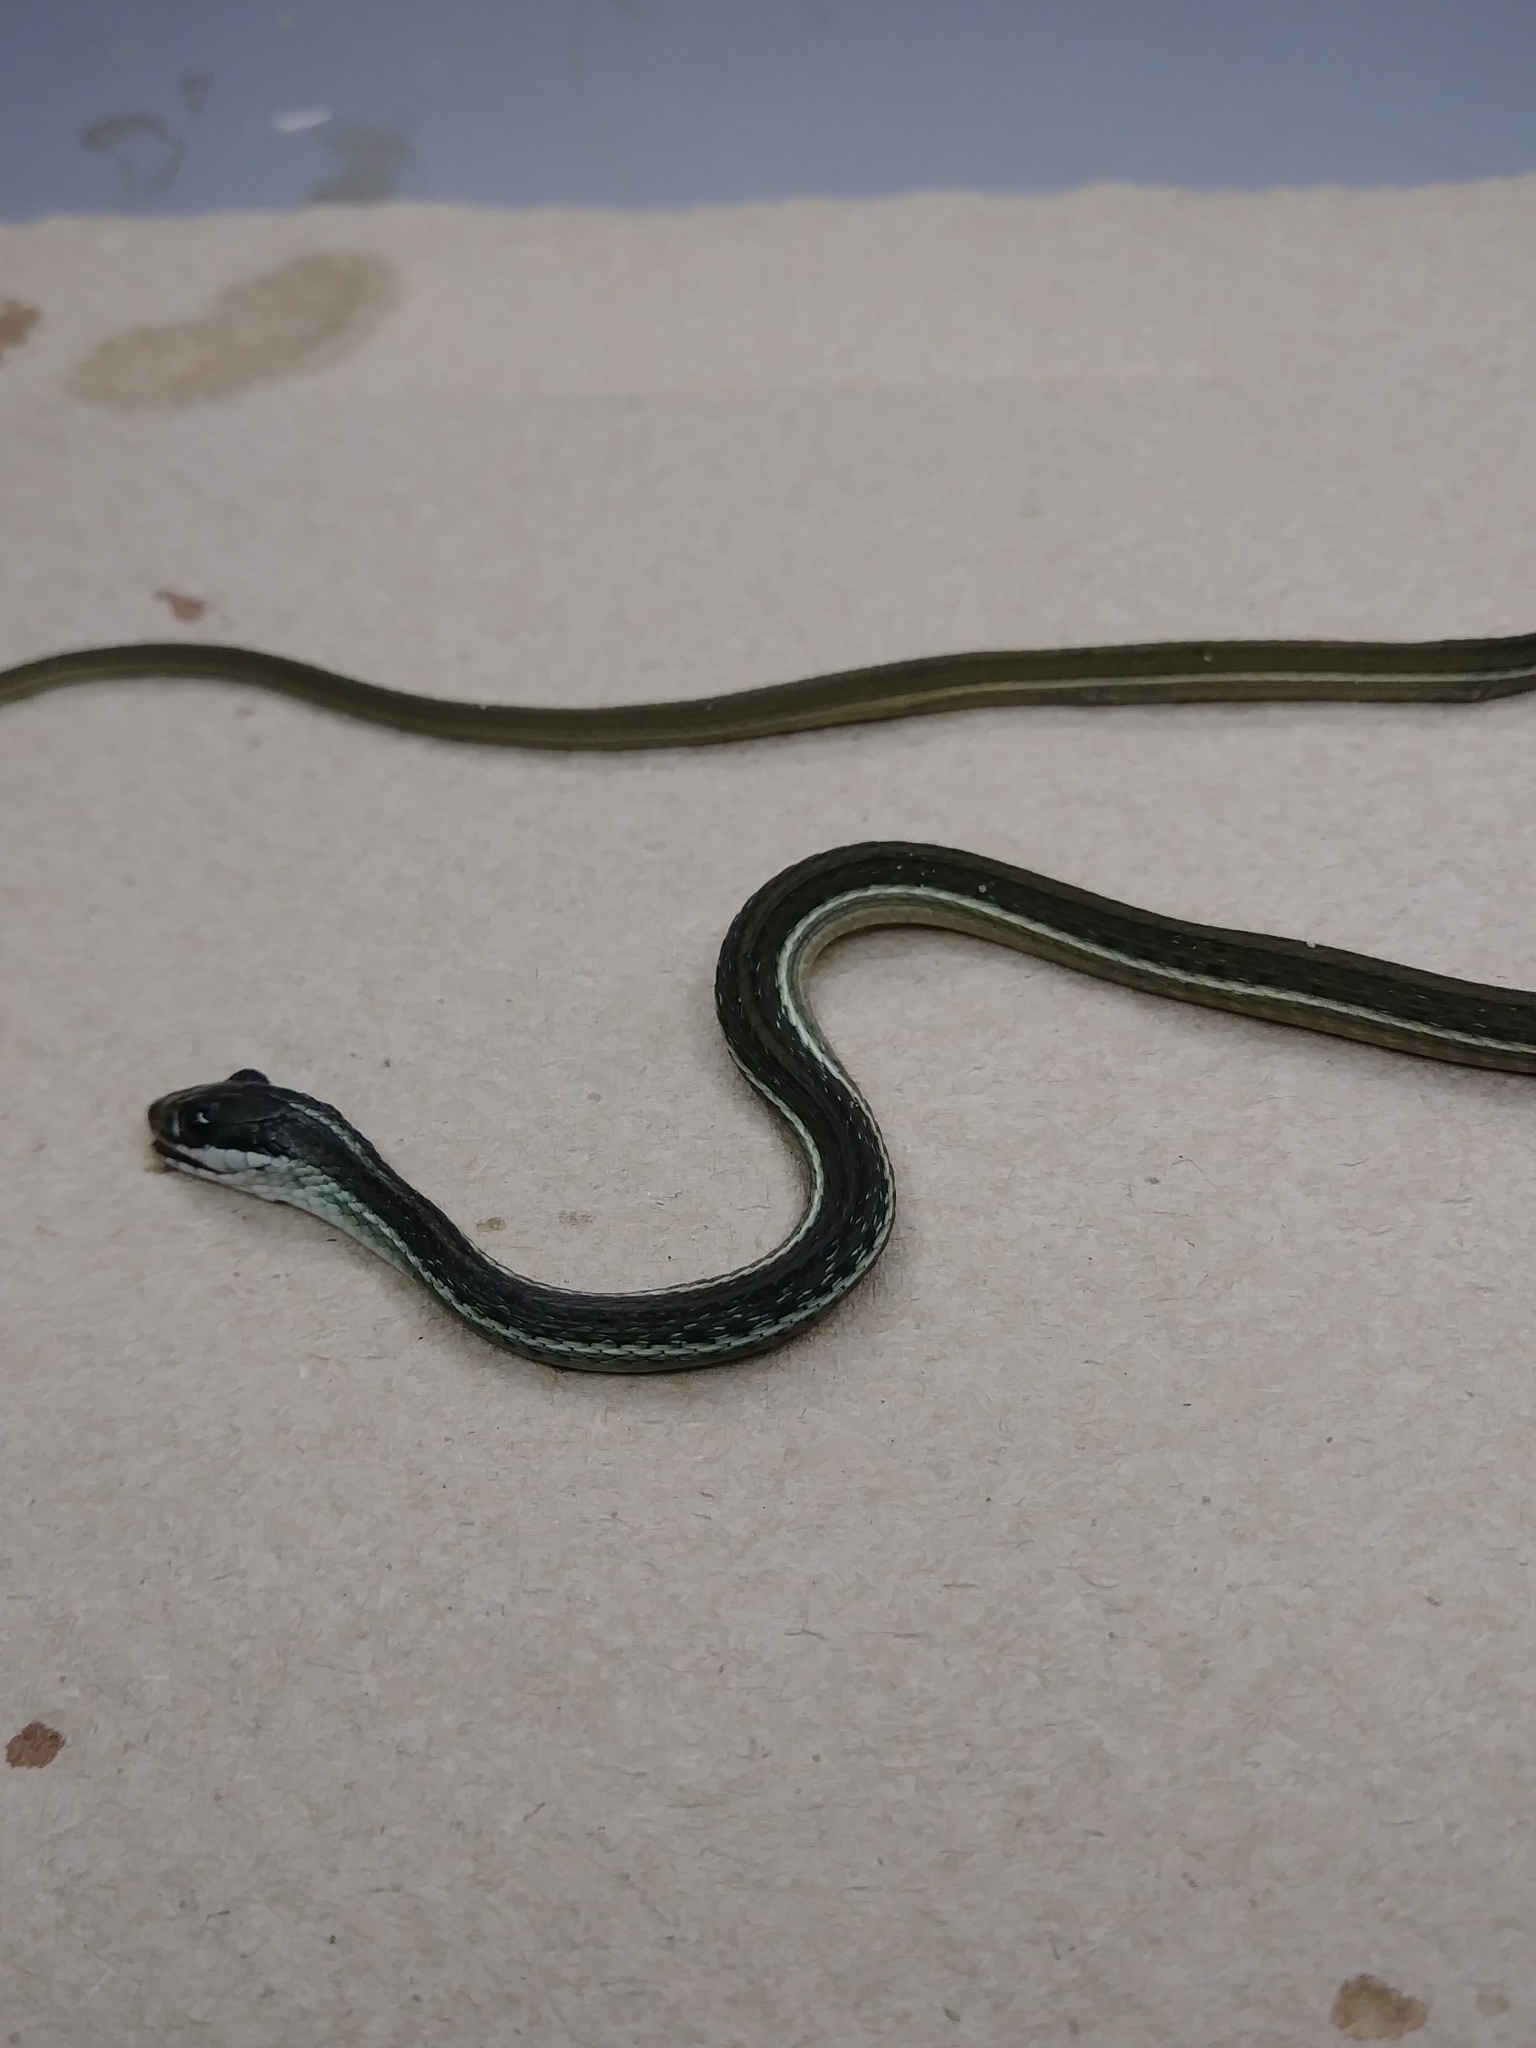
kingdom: Animalia
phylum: Chordata
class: Squamata
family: Colubridae
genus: Thamnophis
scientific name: Thamnophis saurita
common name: Eastern ribbonsnake
